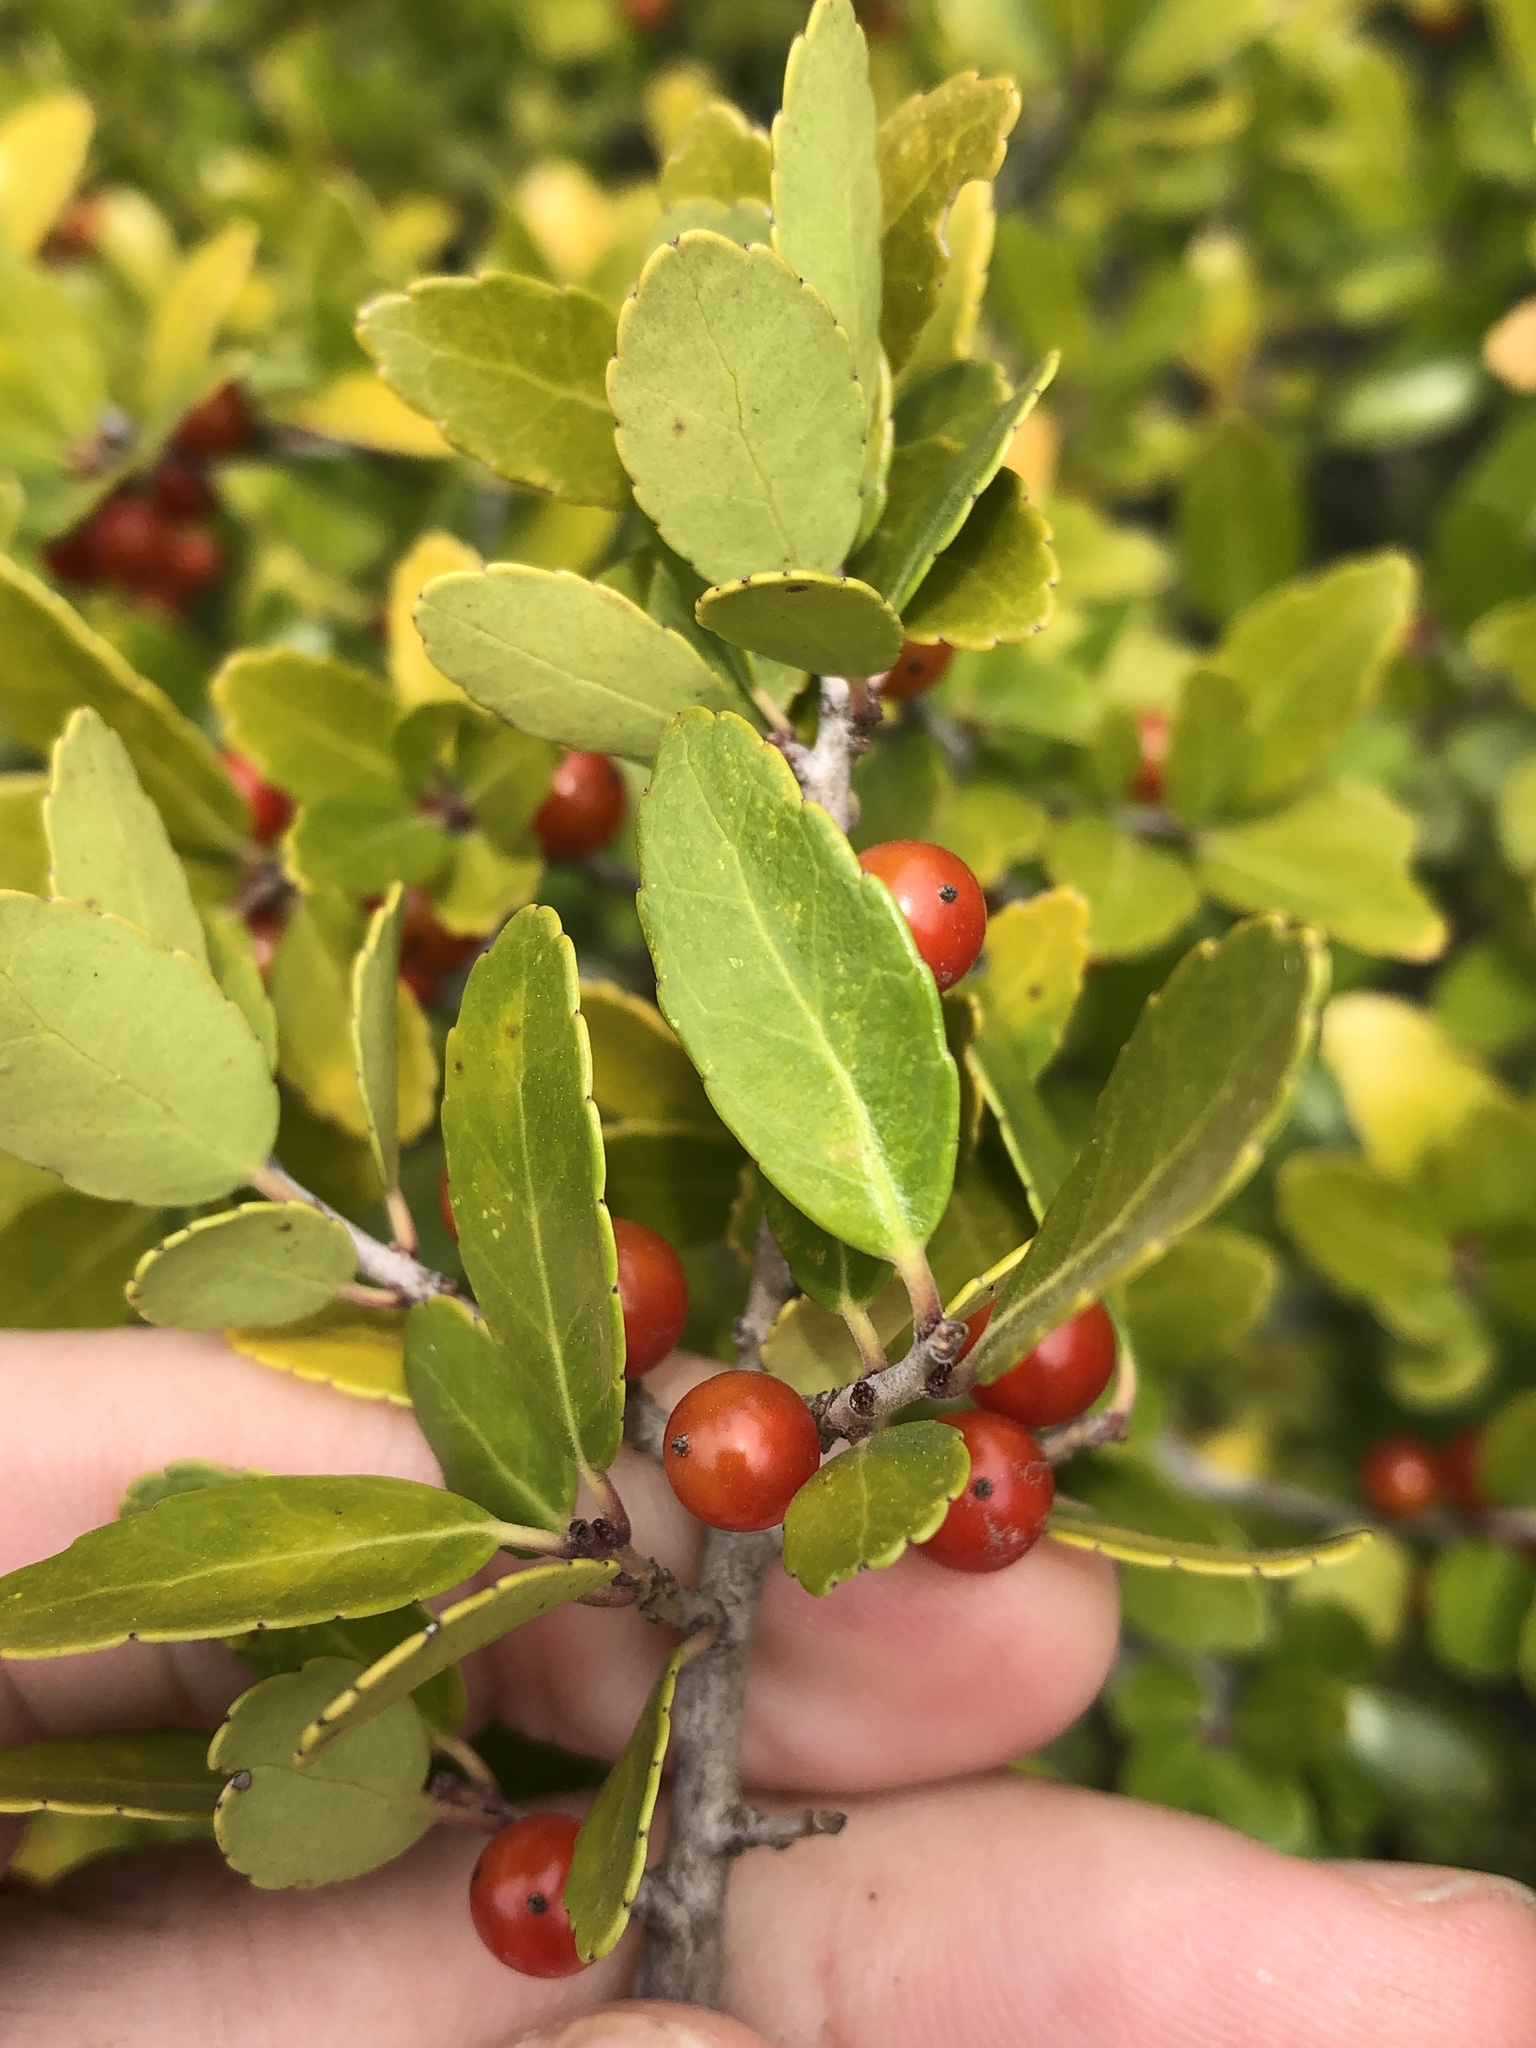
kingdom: Plantae
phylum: Tracheophyta
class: Magnoliopsida
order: Aquifoliales
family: Aquifoliaceae
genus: Ilex
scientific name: Ilex vomitoria
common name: Yaupon holly
